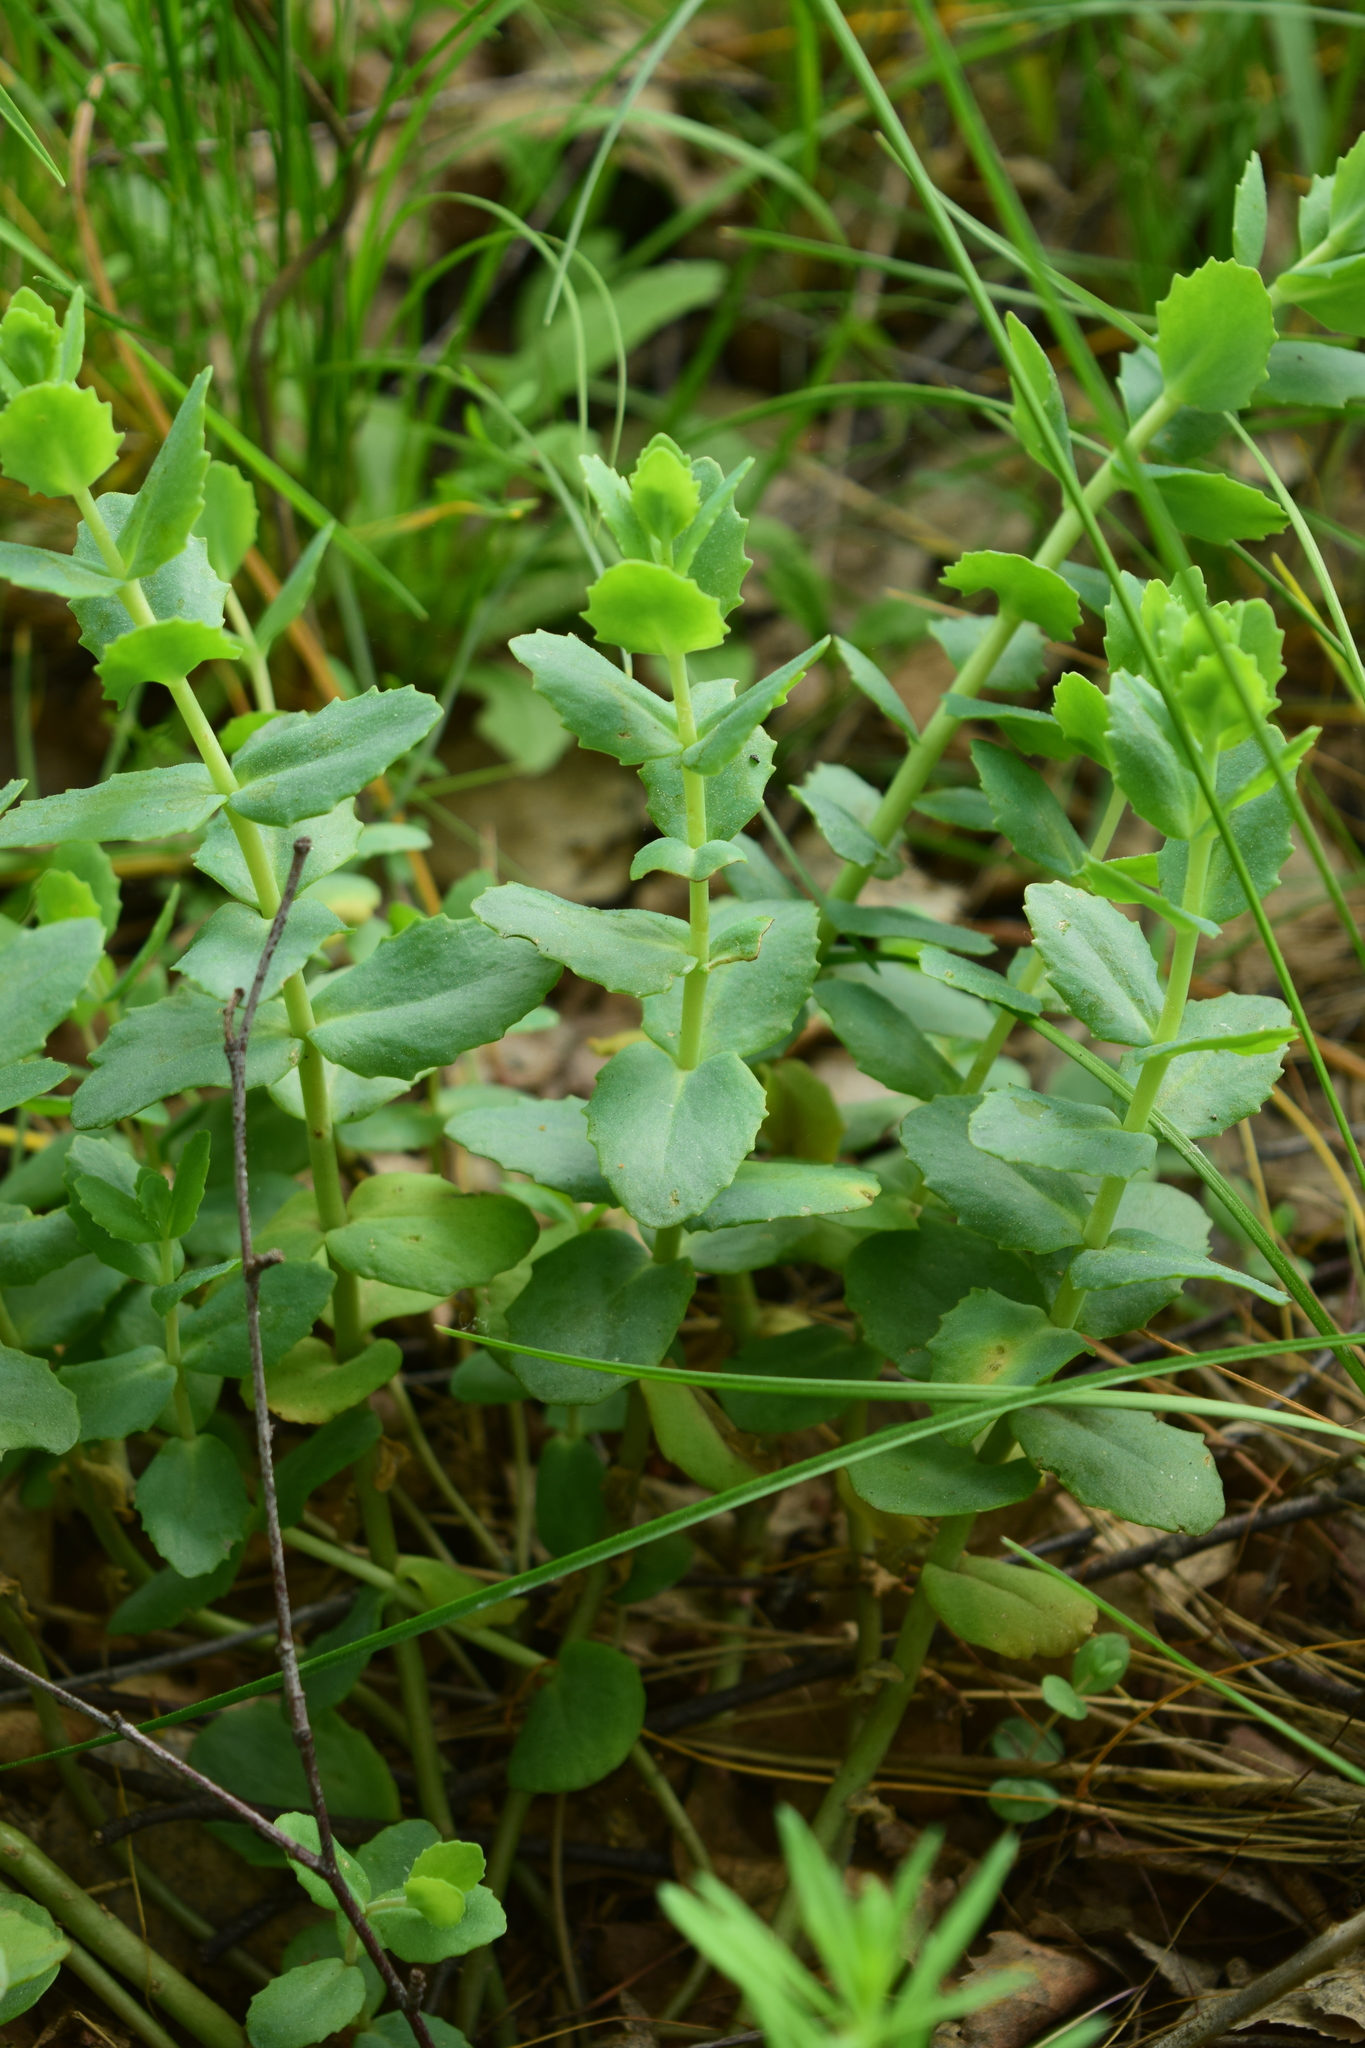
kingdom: Plantae
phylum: Tracheophyta
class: Magnoliopsida
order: Saxifragales
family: Crassulaceae
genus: Hylotelephium
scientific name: Hylotelephium maximum
